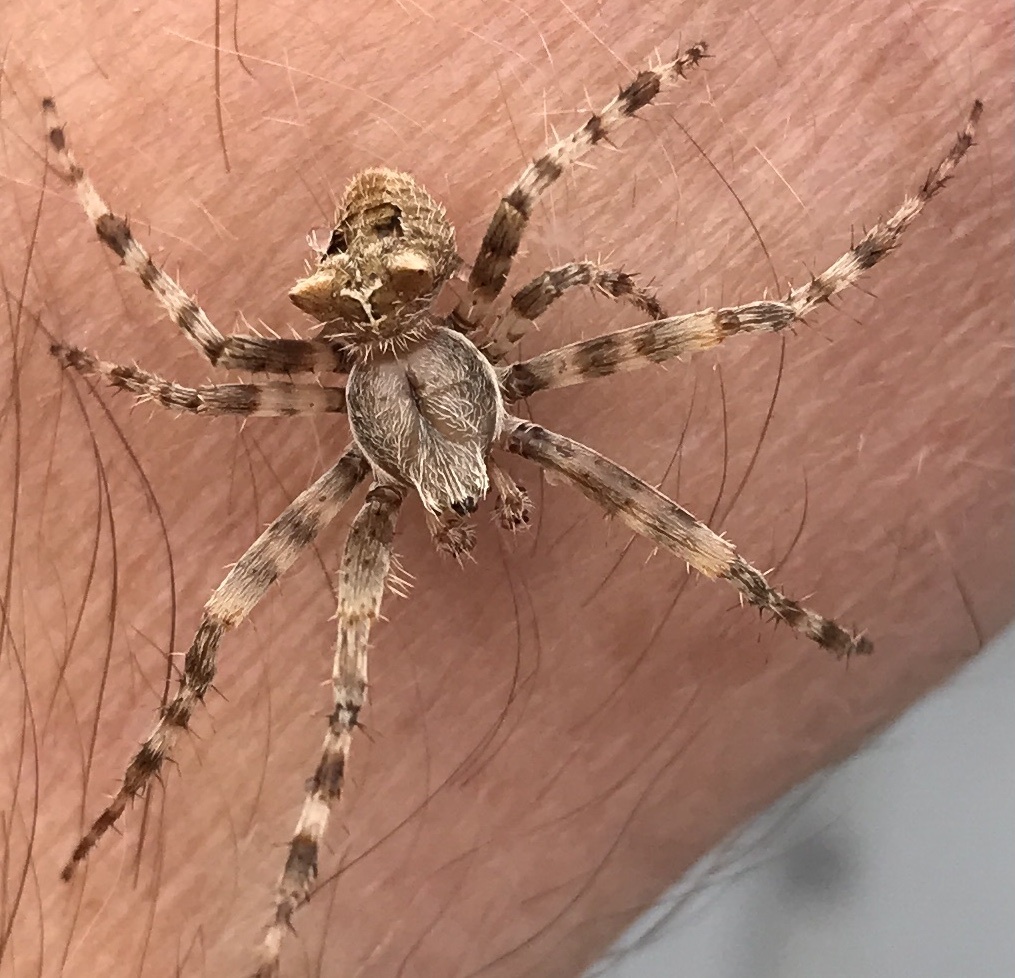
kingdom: Animalia
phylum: Arthropoda
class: Arachnida
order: Araneae
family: Araneidae
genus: Araneus
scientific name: Araneus gemmoides
